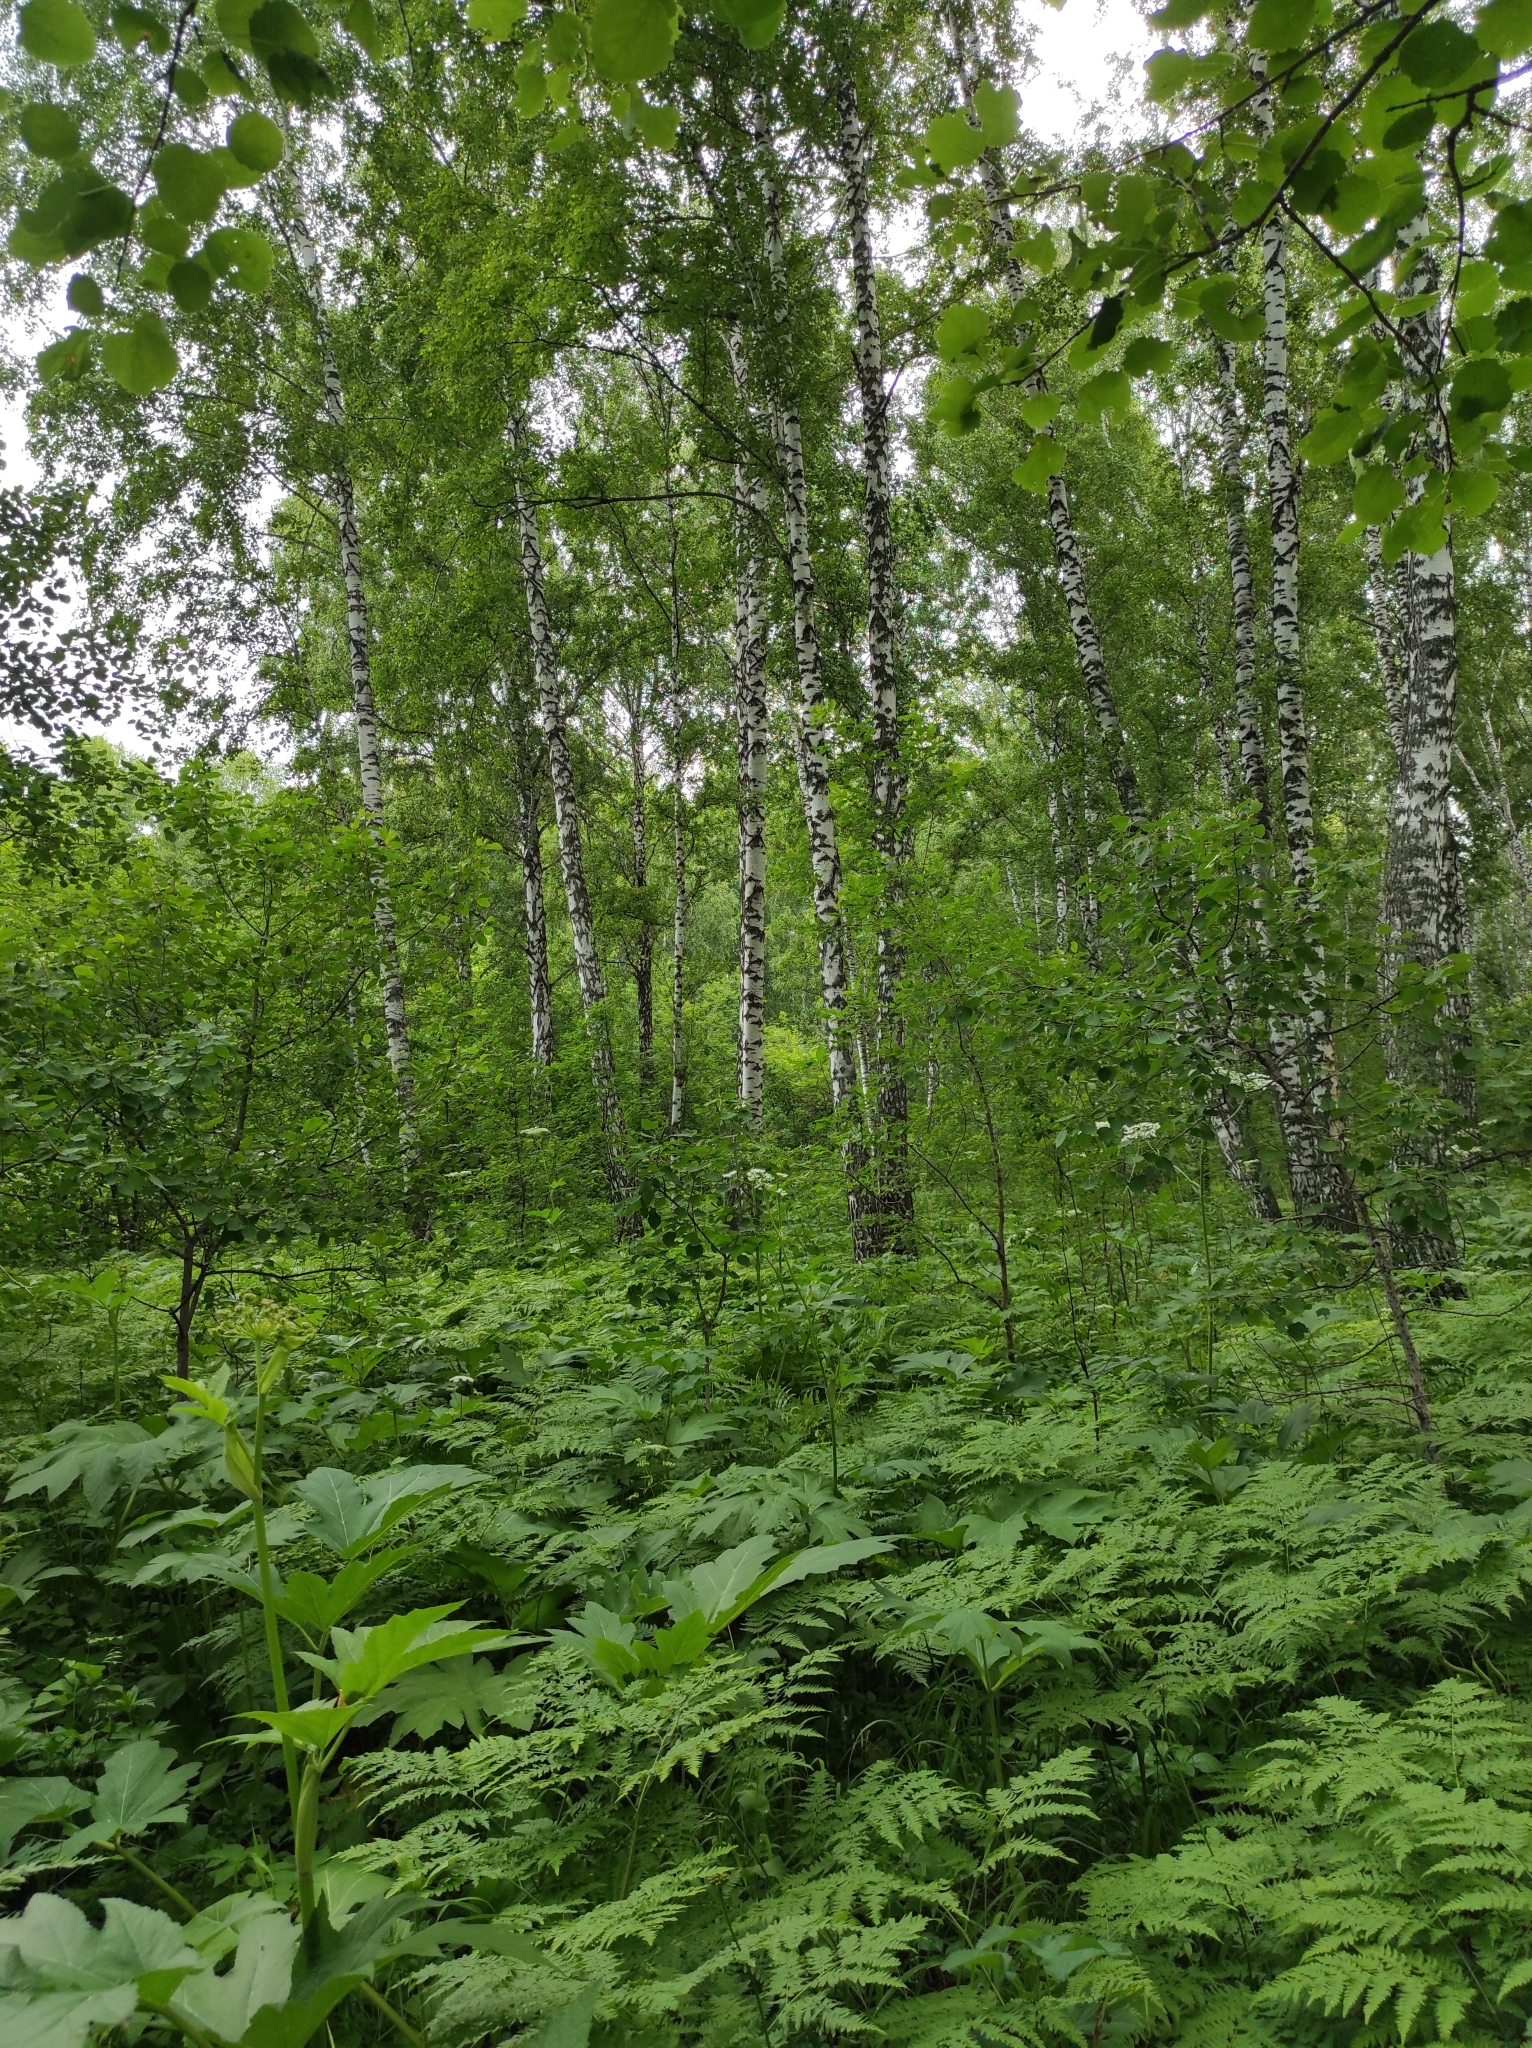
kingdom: Plantae
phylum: Tracheophyta
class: Magnoliopsida
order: Fagales
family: Betulaceae
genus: Betula
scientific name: Betula pendula
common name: Silver birch
